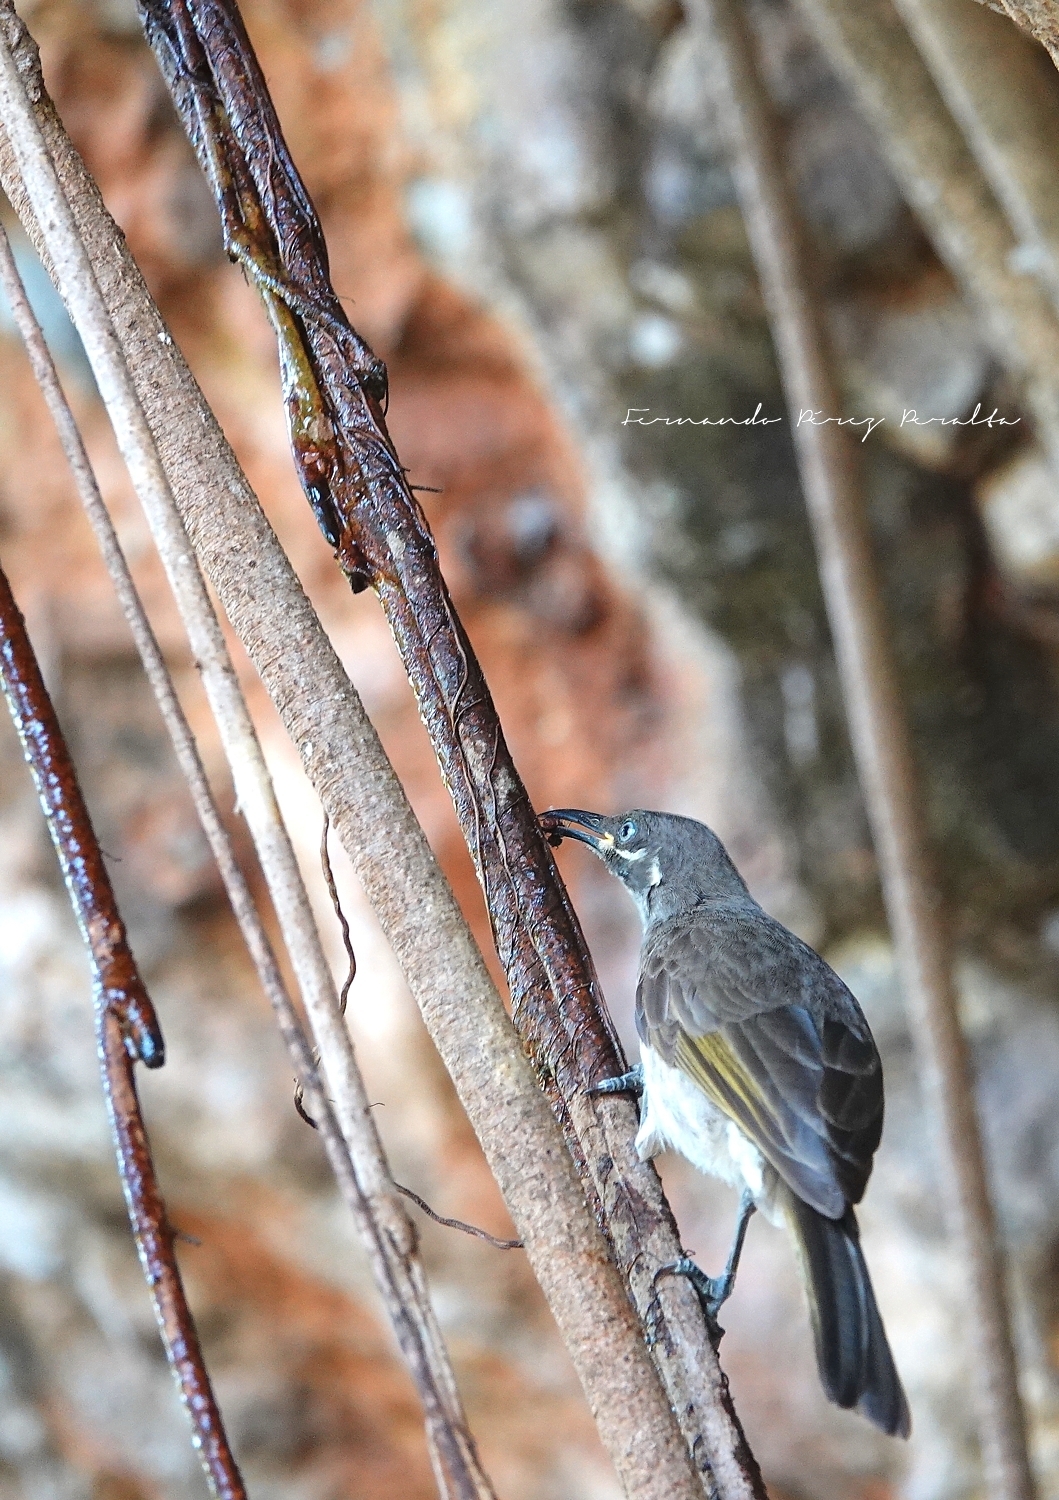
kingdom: Animalia
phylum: Chordata
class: Aves
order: Passeriformes
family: Meliphagidae
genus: Territornis
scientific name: Territornis albilineata
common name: White-lined honeyeater
